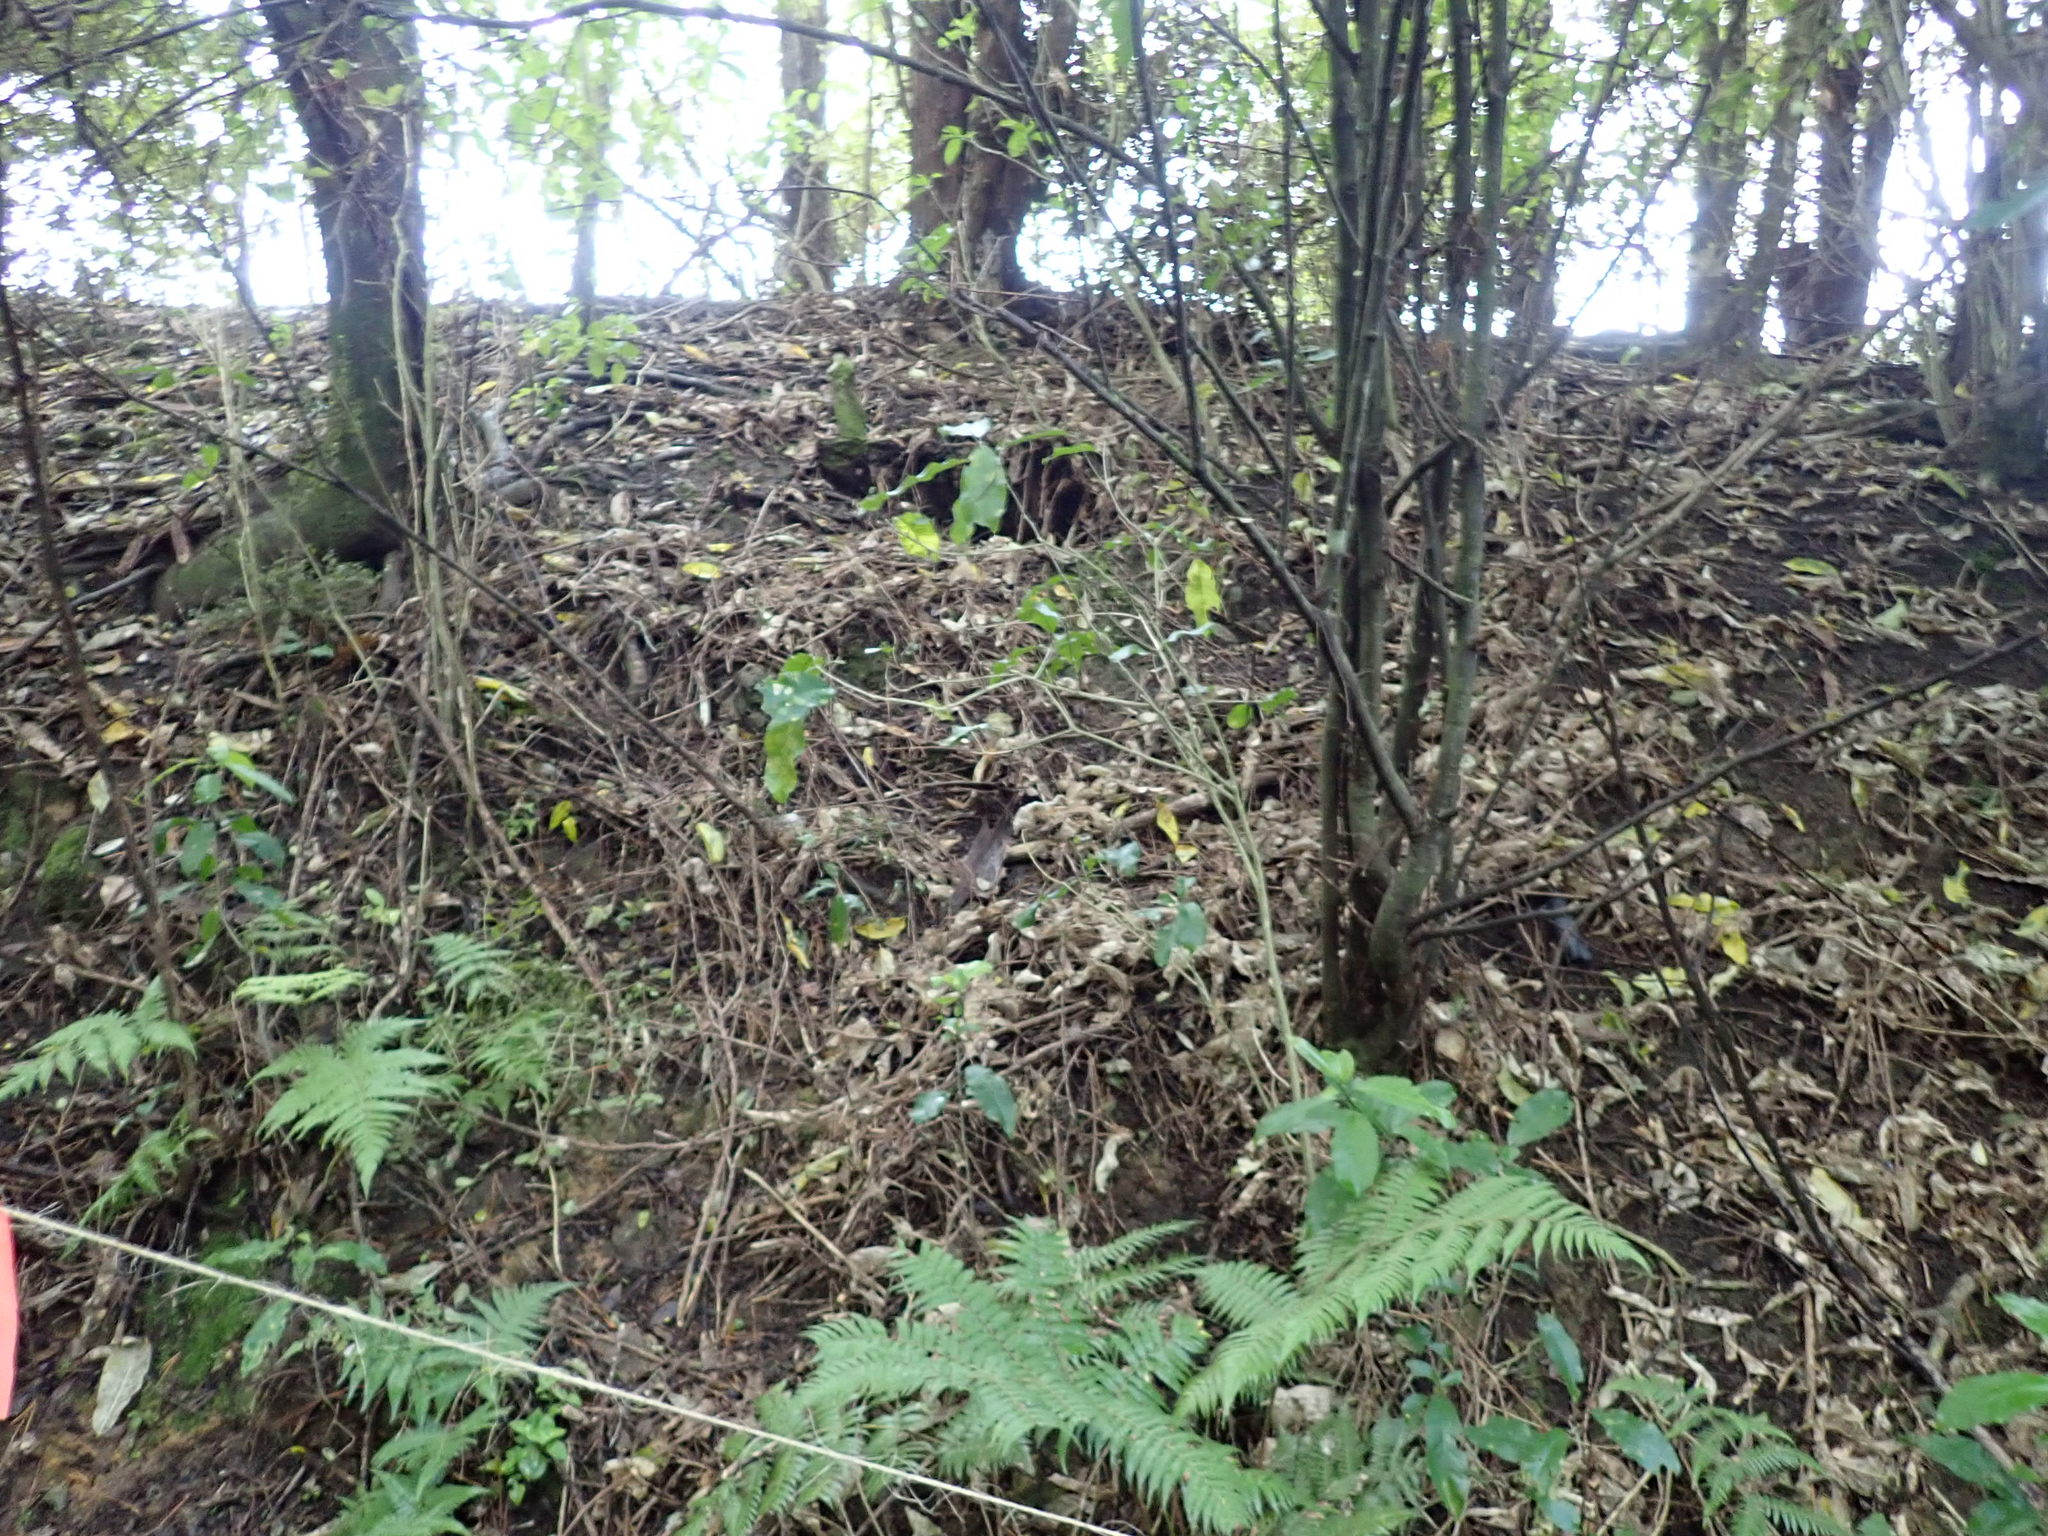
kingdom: Plantae
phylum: Tracheophyta
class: Magnoliopsida
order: Malpighiales
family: Violaceae
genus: Melicytus
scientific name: Melicytus ramiflorus
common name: Mahoe
